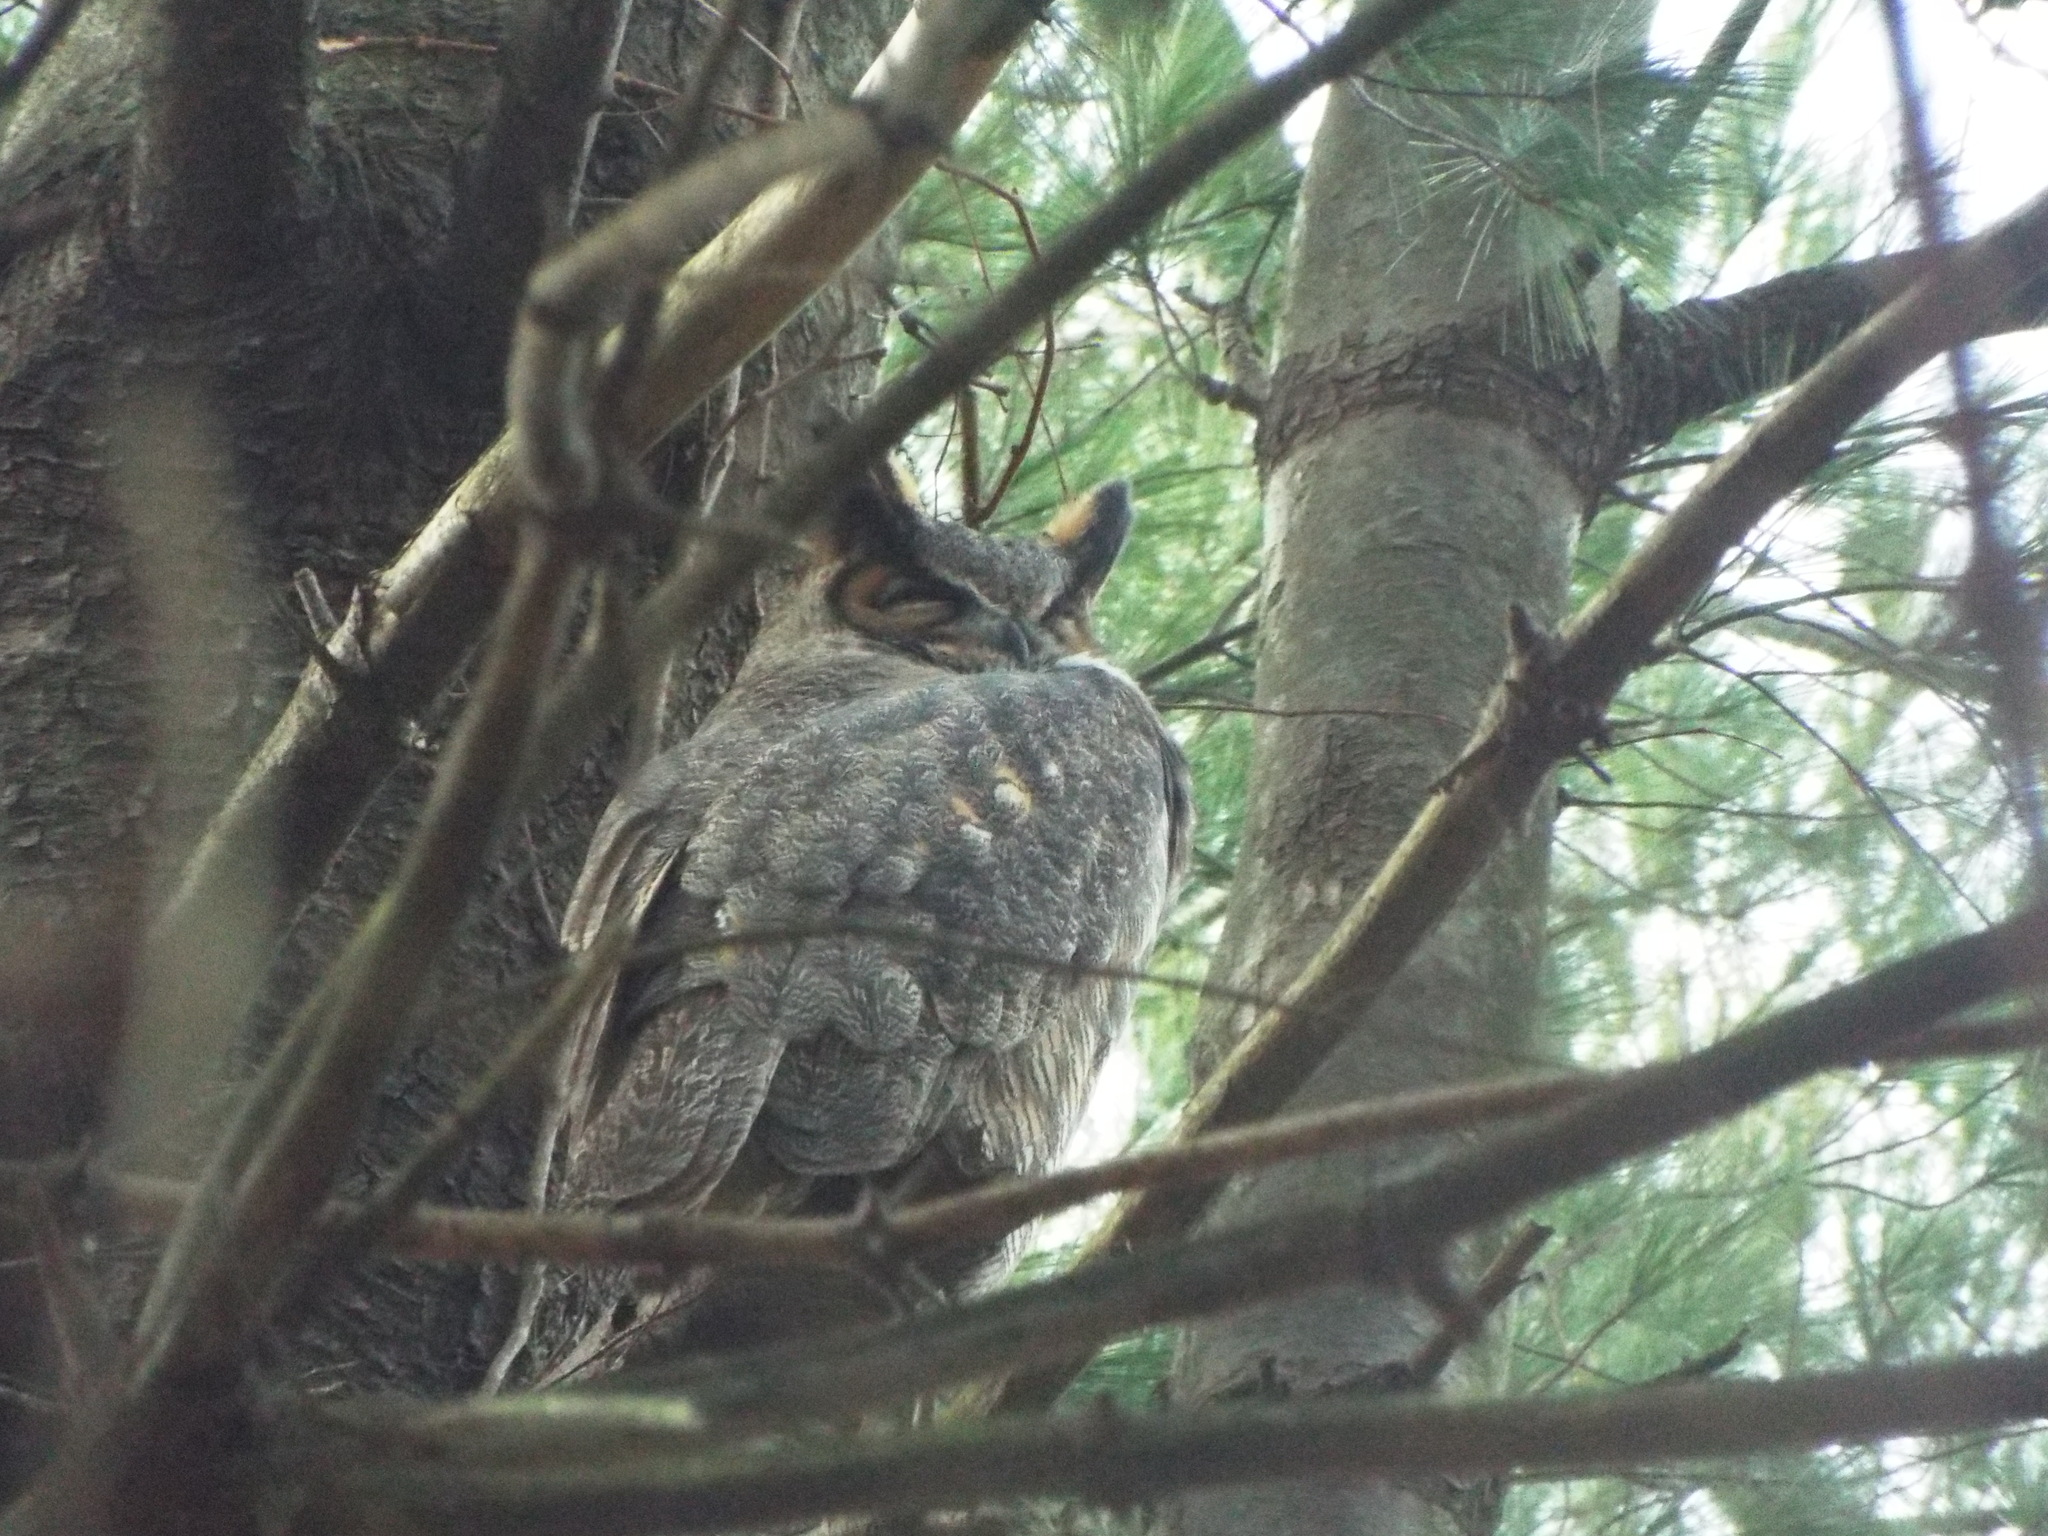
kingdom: Animalia
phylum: Chordata
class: Aves
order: Strigiformes
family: Strigidae
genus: Bubo
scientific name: Bubo virginianus
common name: Great horned owl
